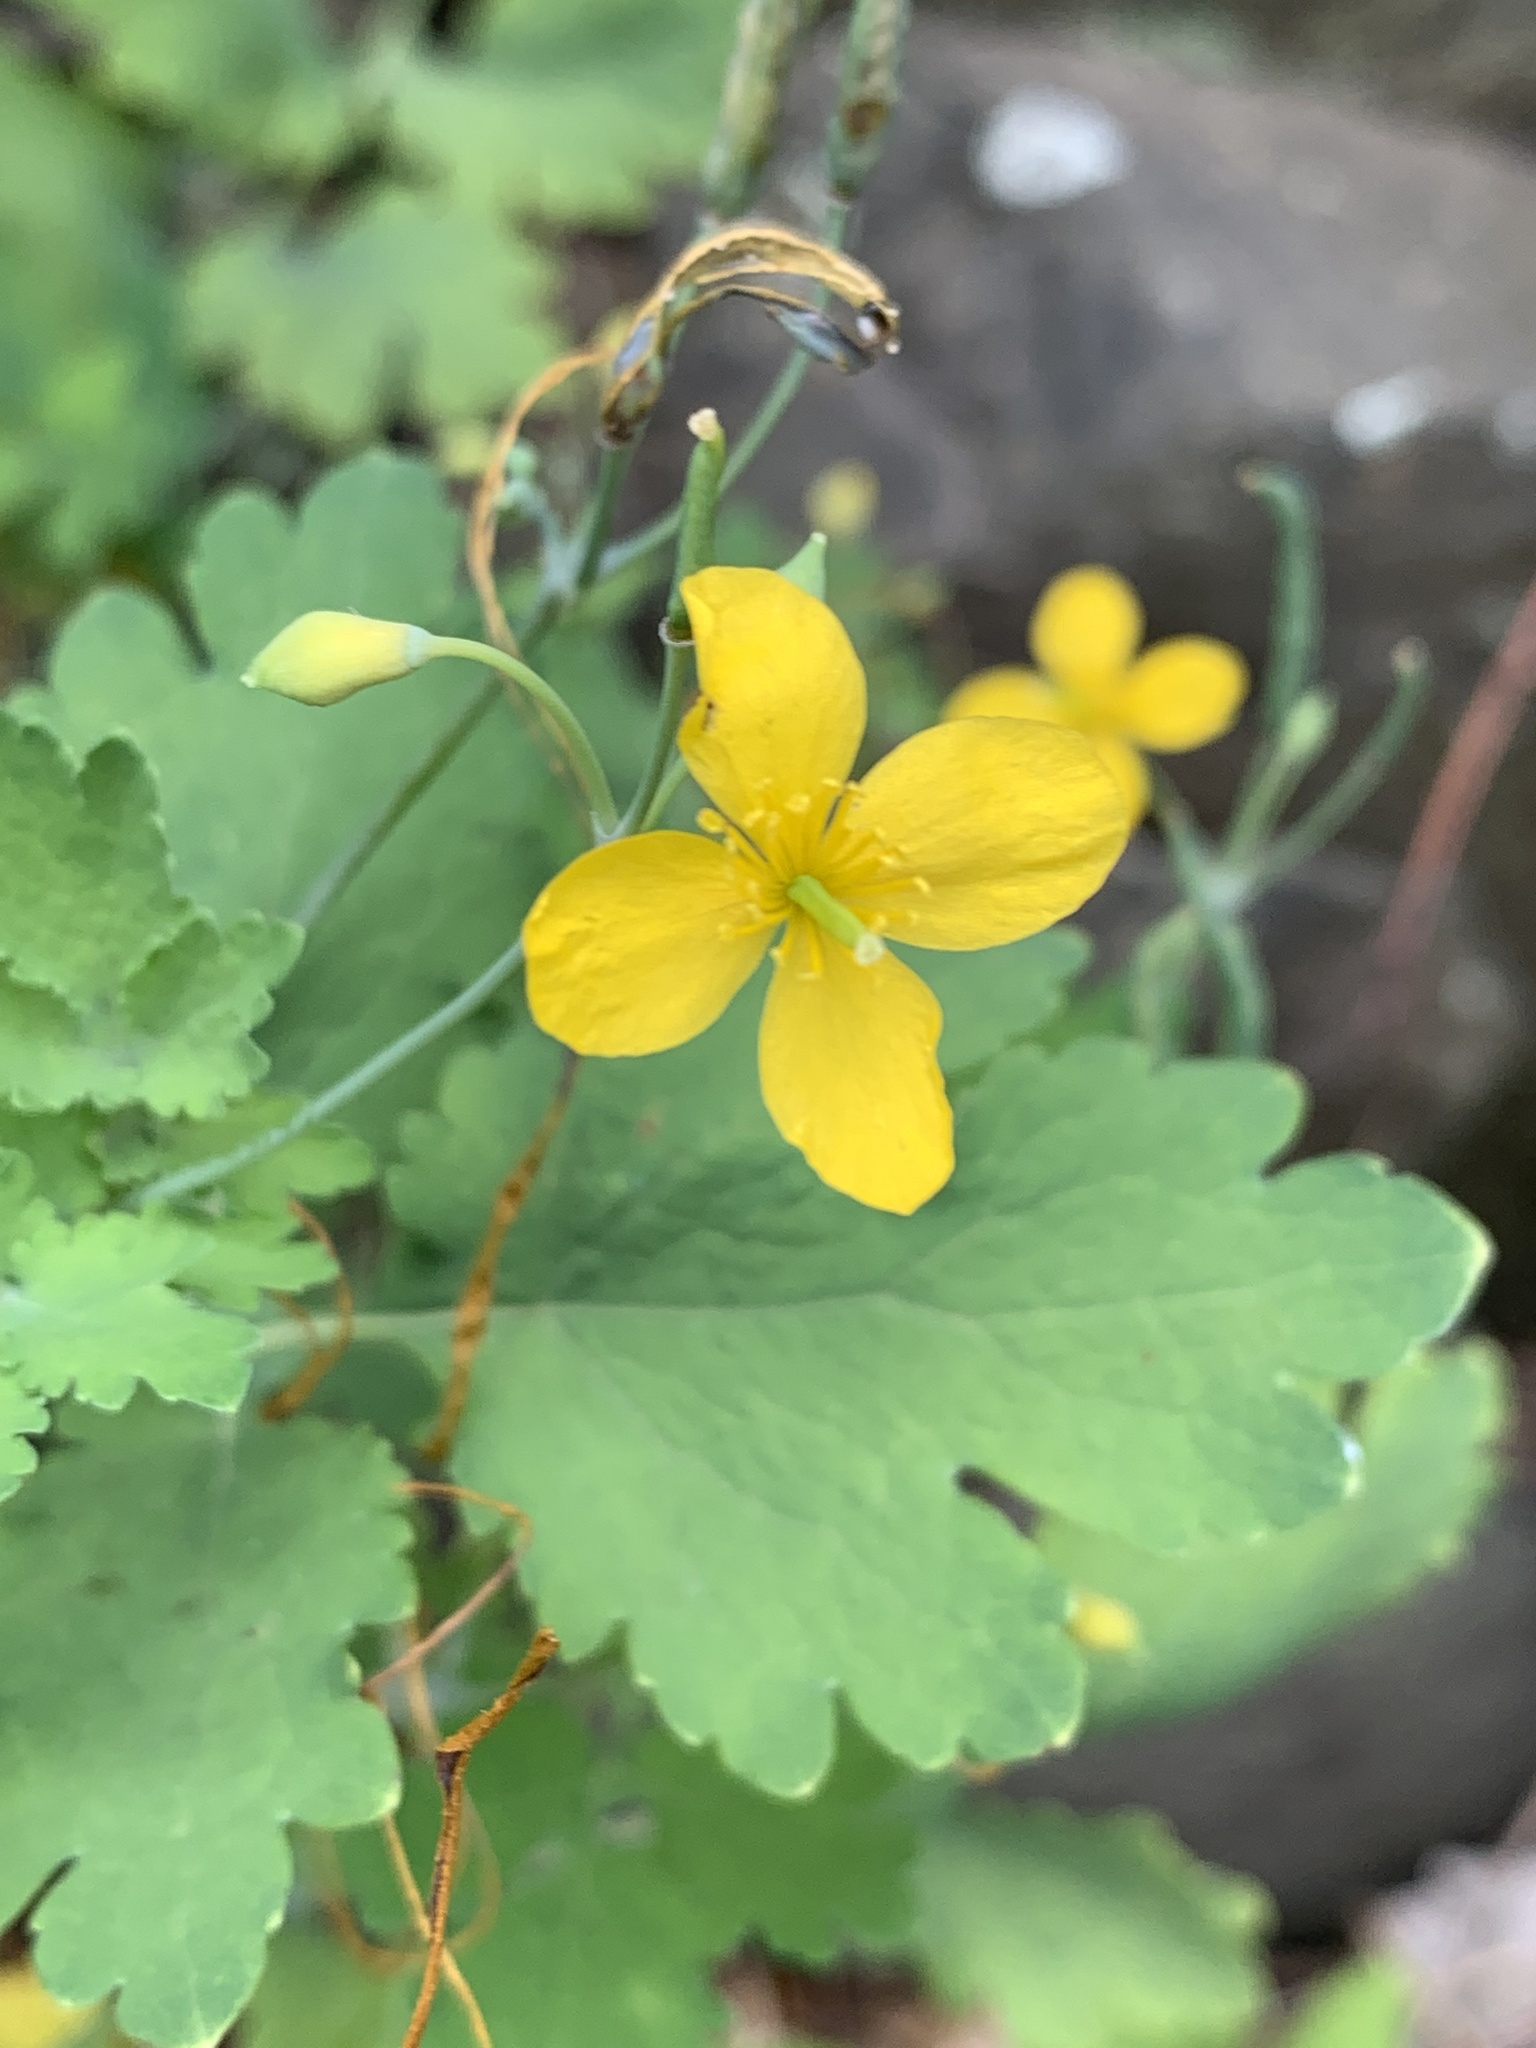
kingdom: Plantae
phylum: Tracheophyta
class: Magnoliopsida
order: Ranunculales
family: Papaveraceae
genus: Chelidonium
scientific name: Chelidonium majus
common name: Greater celandine
